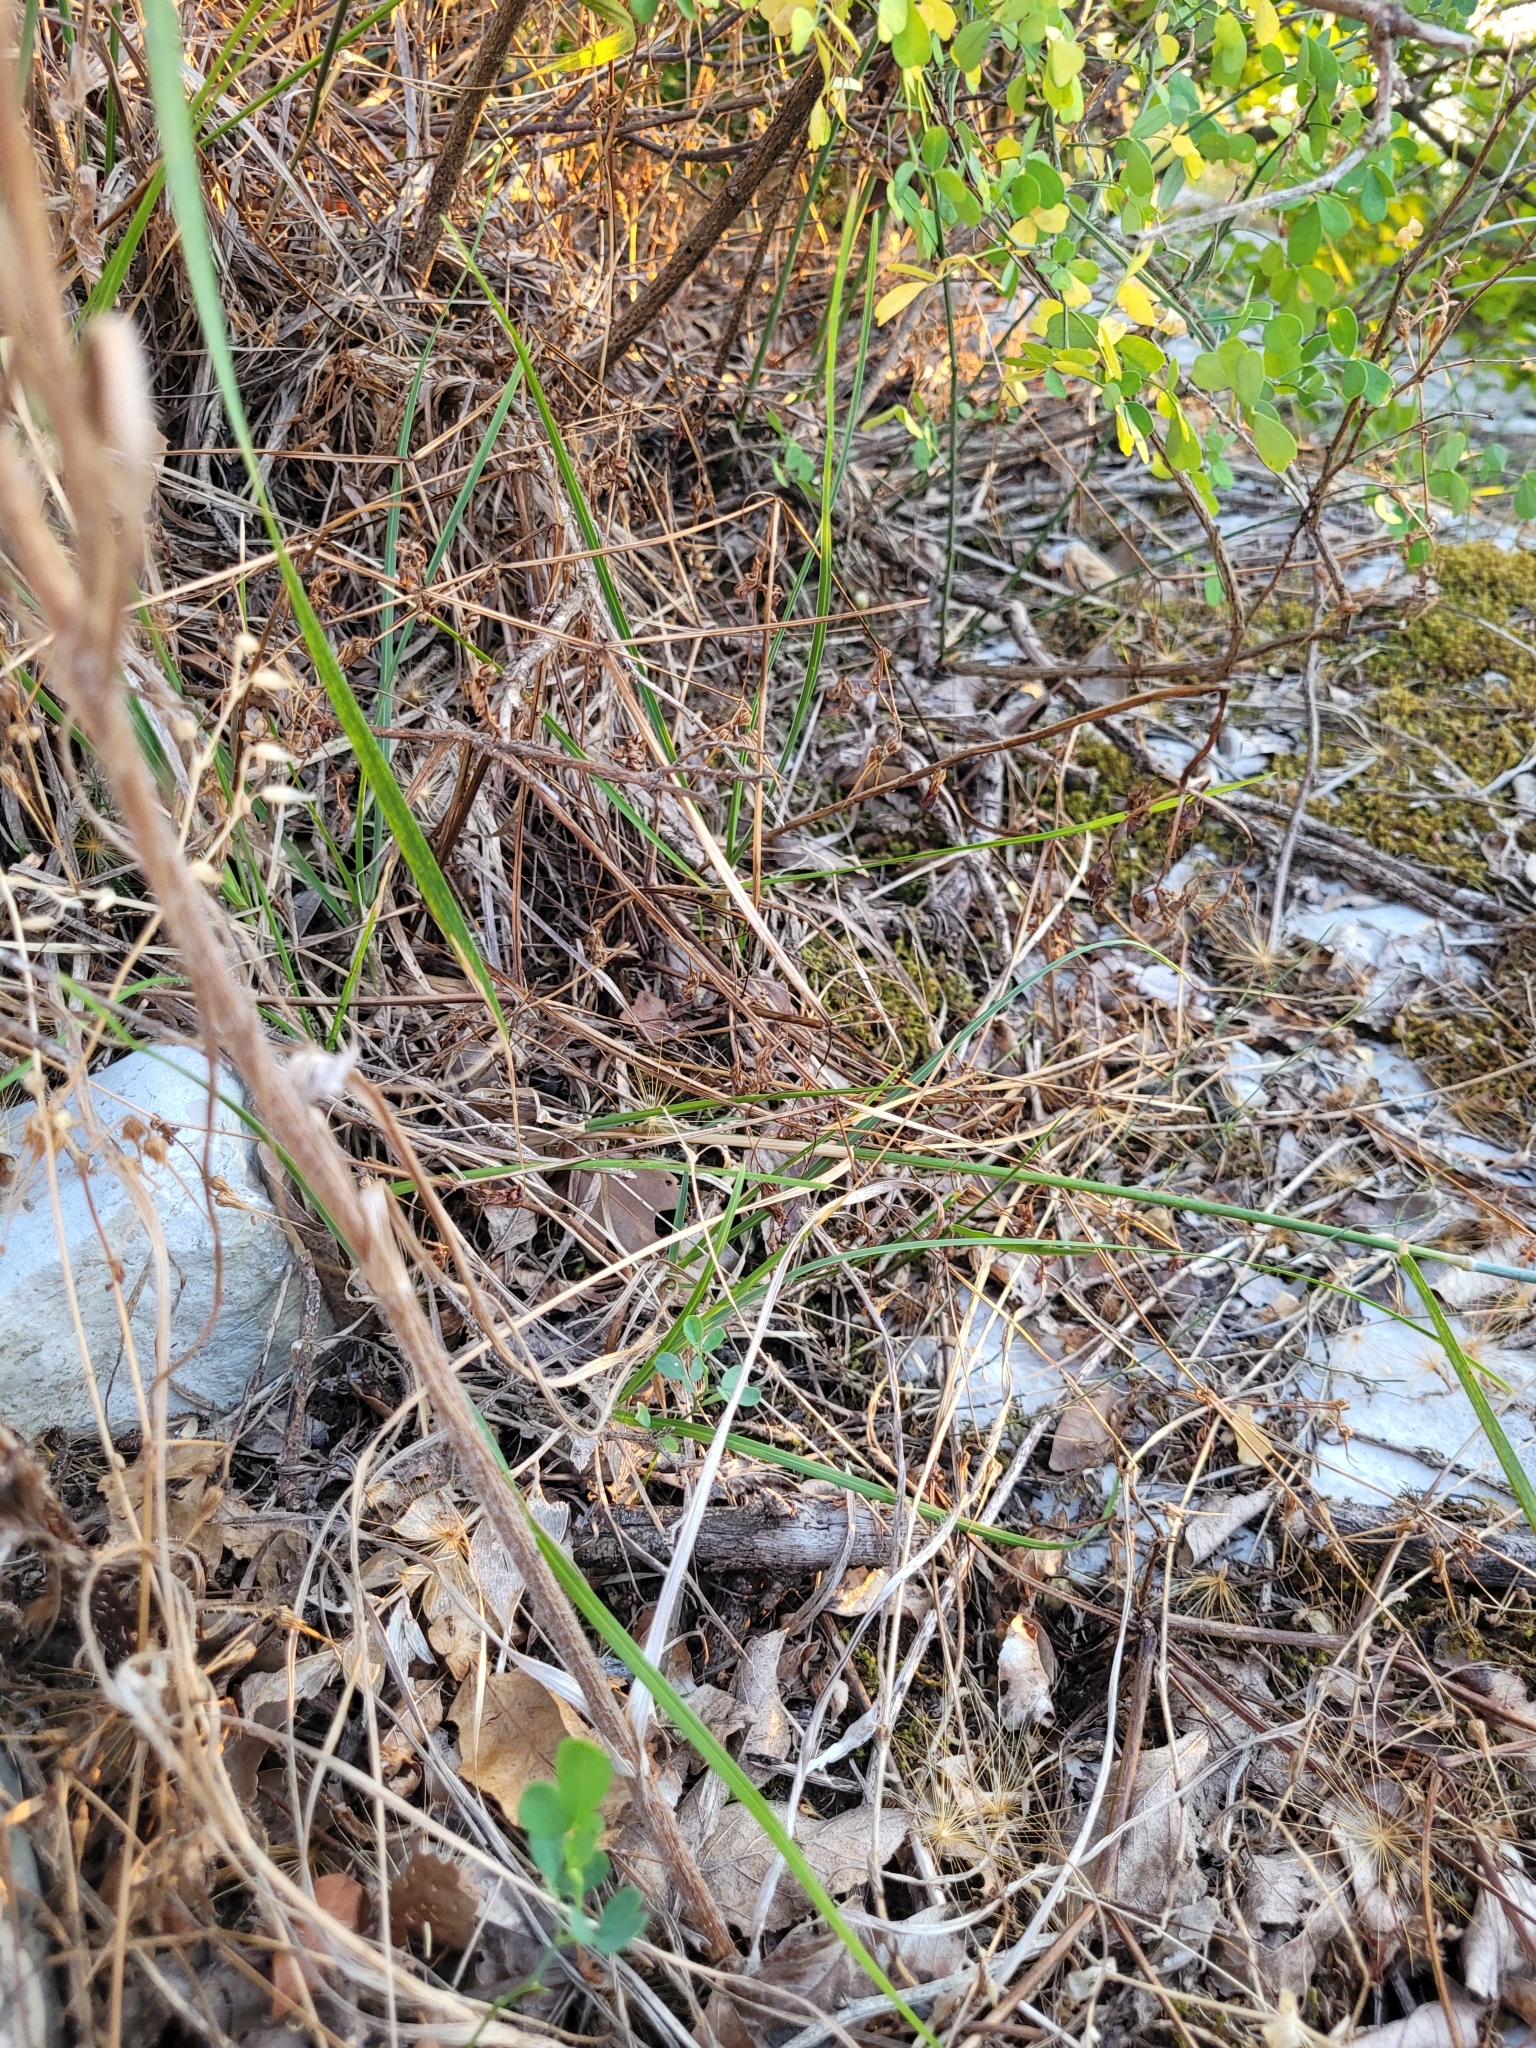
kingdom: Plantae
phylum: Tracheophyta
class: Magnoliopsida
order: Asterales
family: Asteraceae
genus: Gelasia
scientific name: Gelasia villosa
